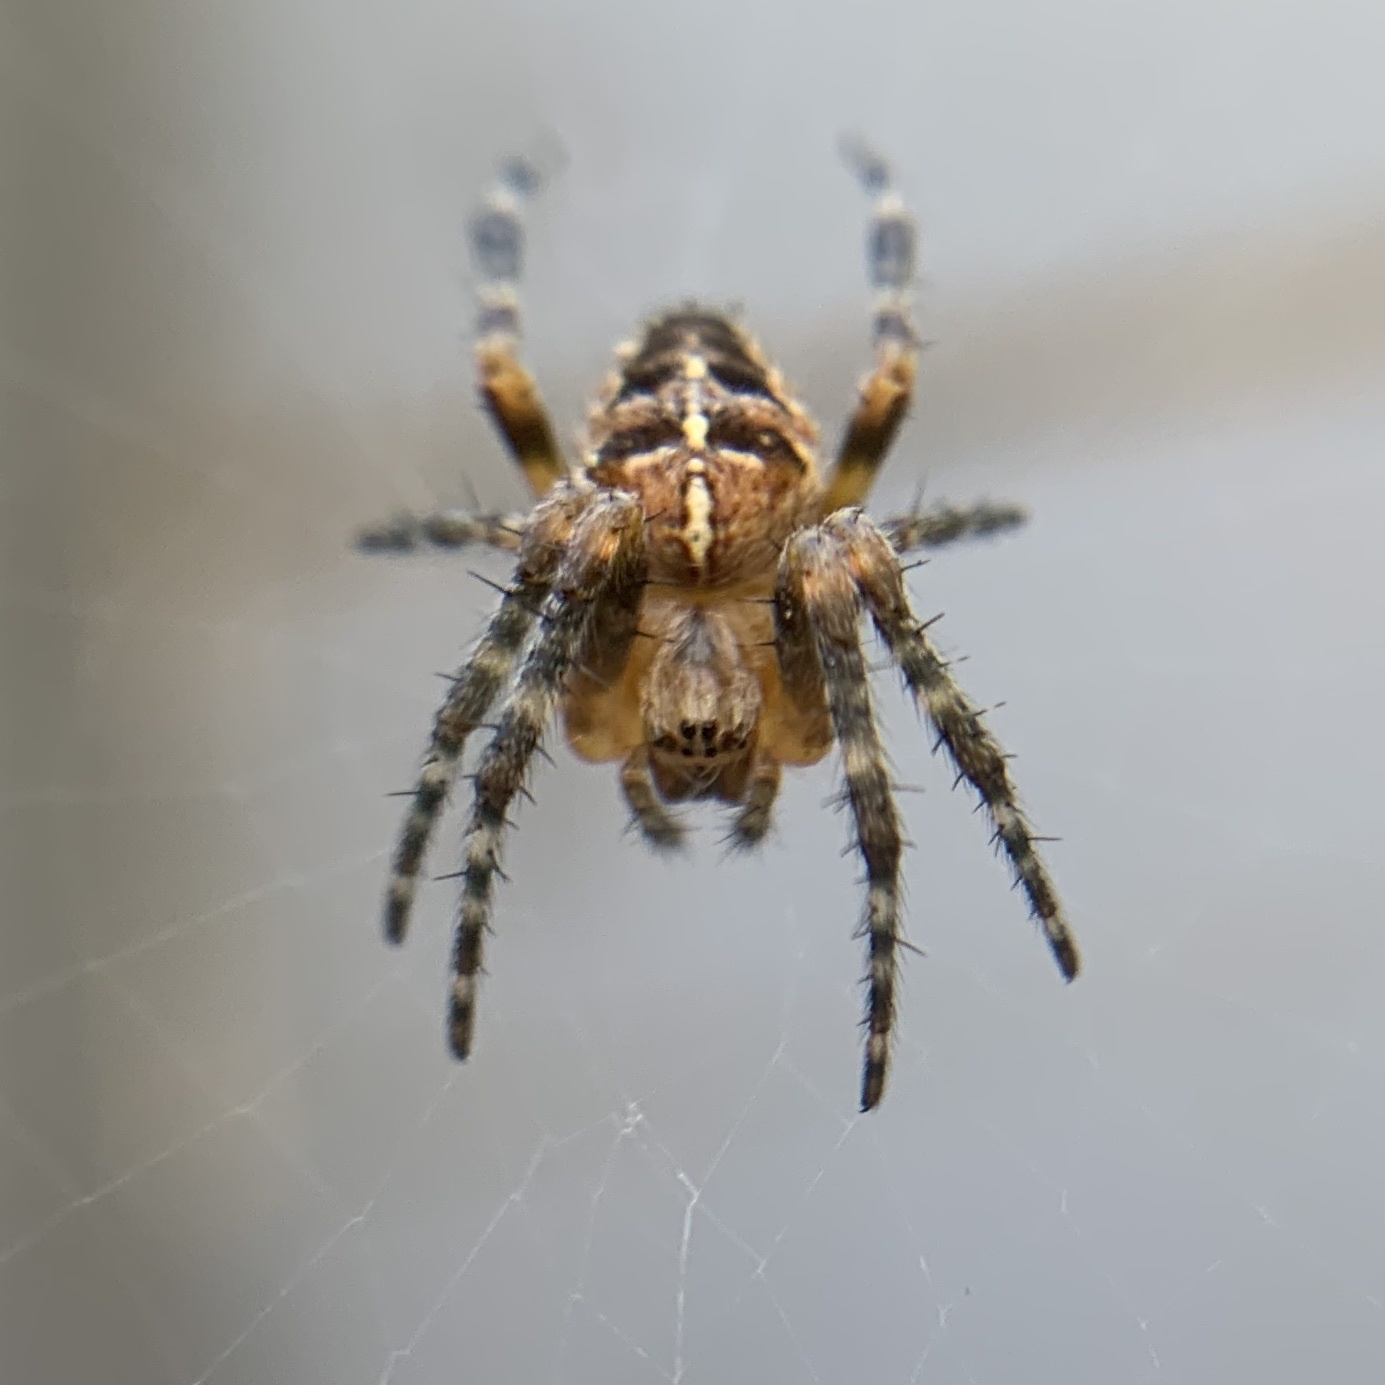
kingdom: Animalia
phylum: Arthropoda
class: Arachnida
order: Araneae
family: Araneidae
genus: Araneus
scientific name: Araneus diadematus
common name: Cross orbweaver
